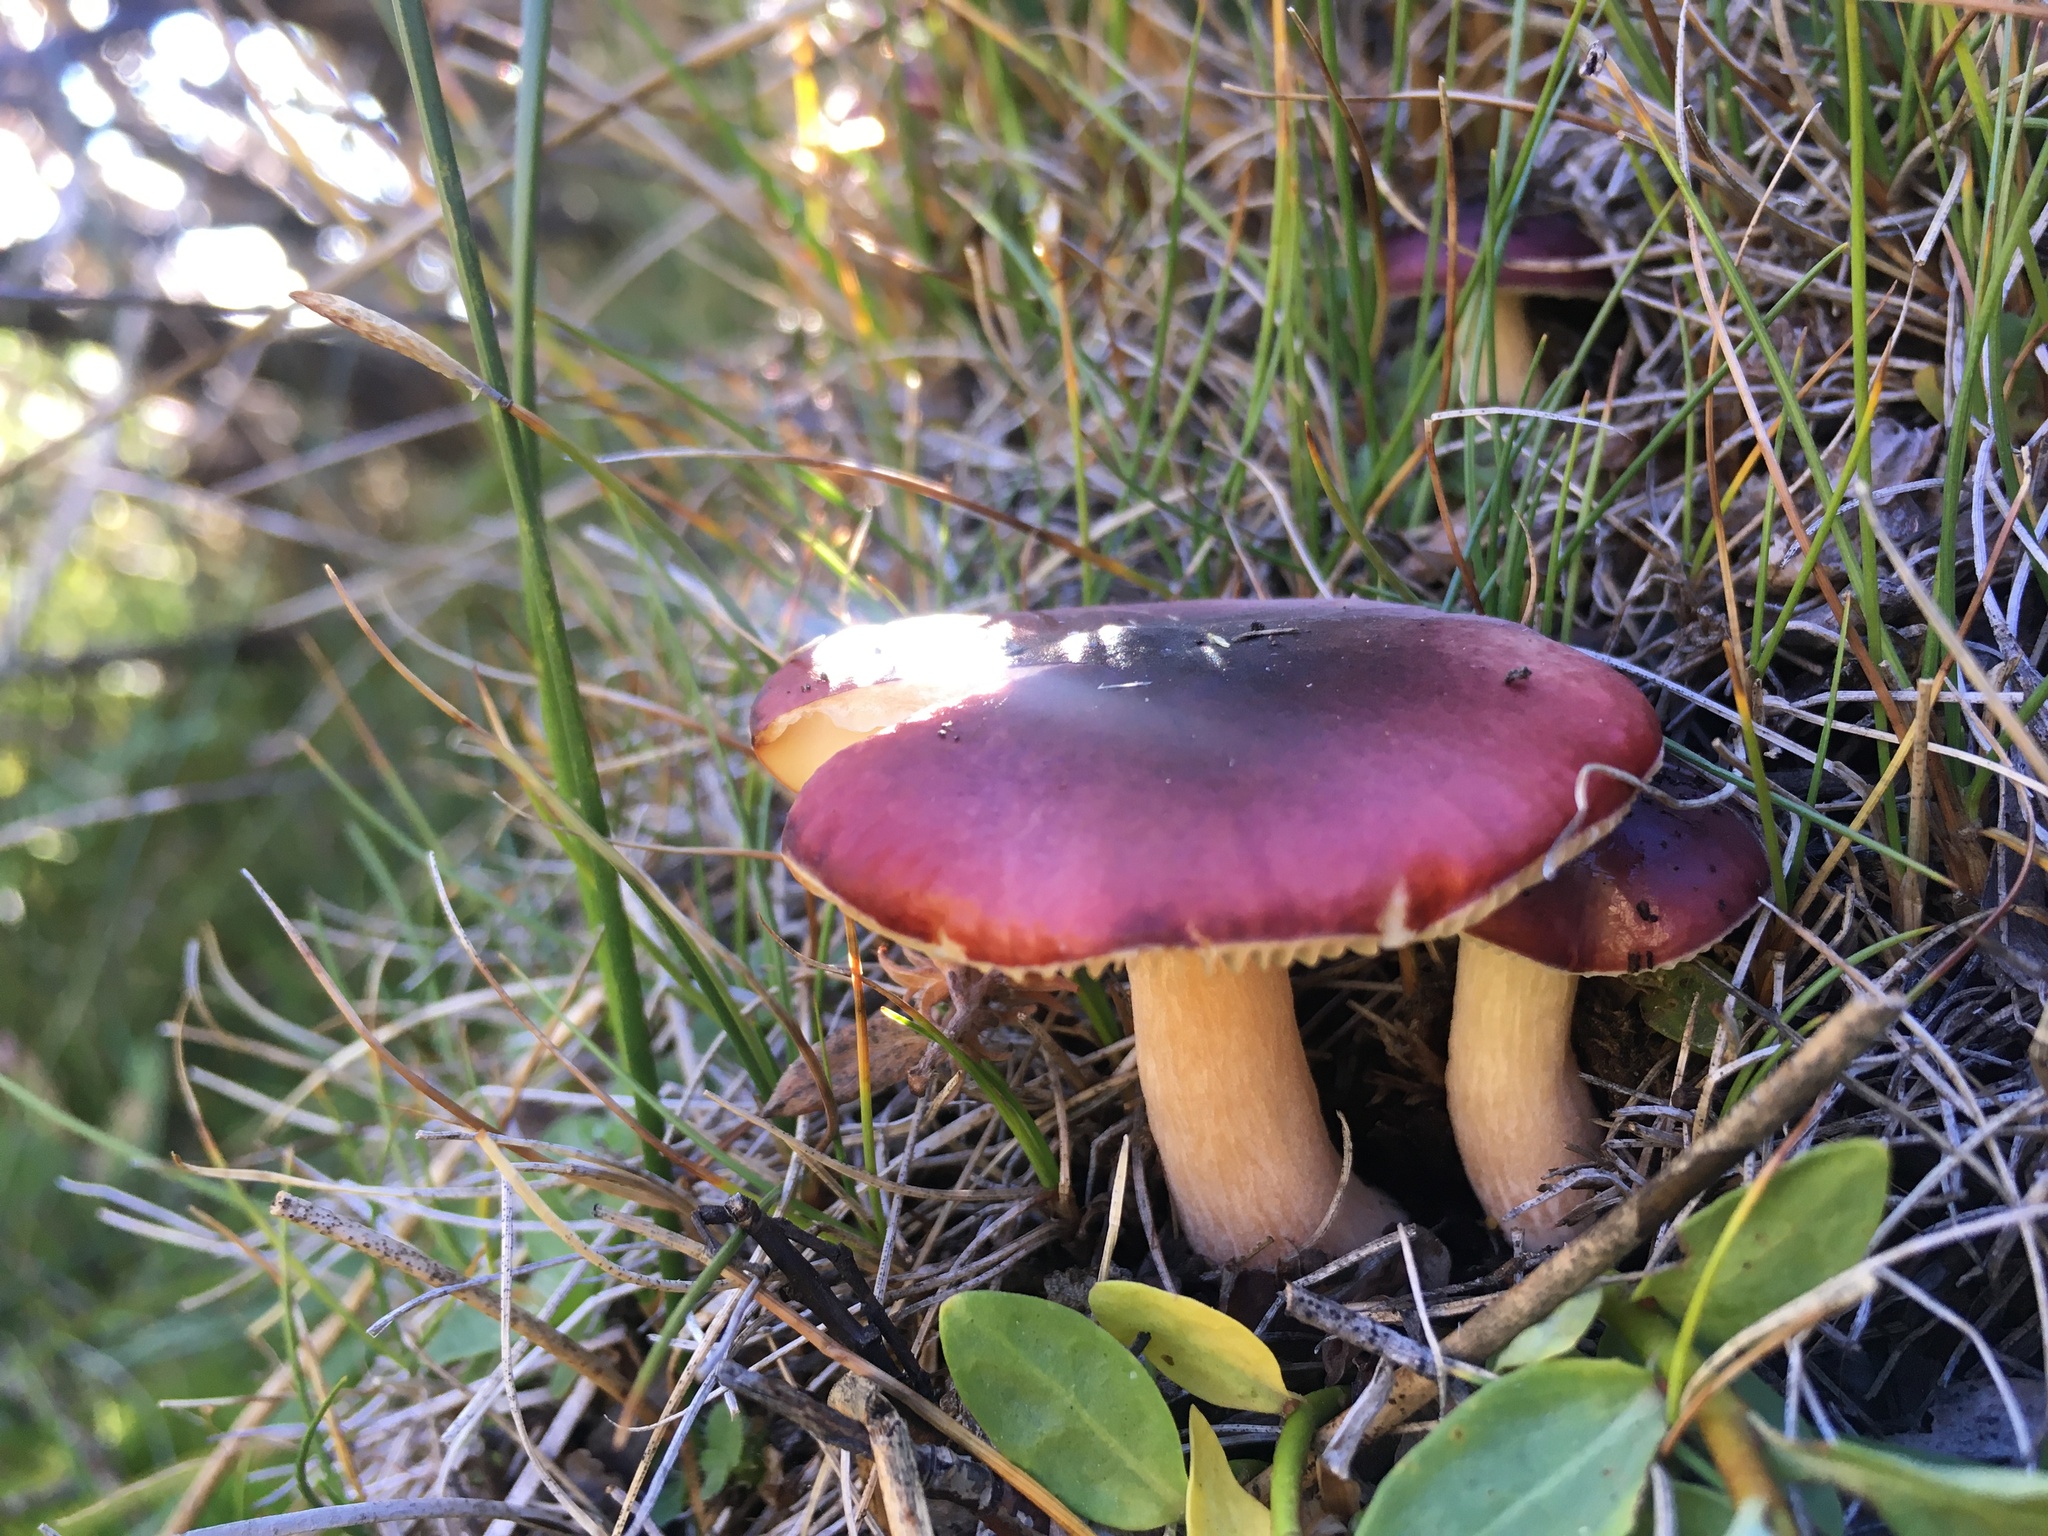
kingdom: Fungi
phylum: Basidiomycota
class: Agaricomycetes
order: Russulales
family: Russulaceae
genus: Russula
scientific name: Russula
